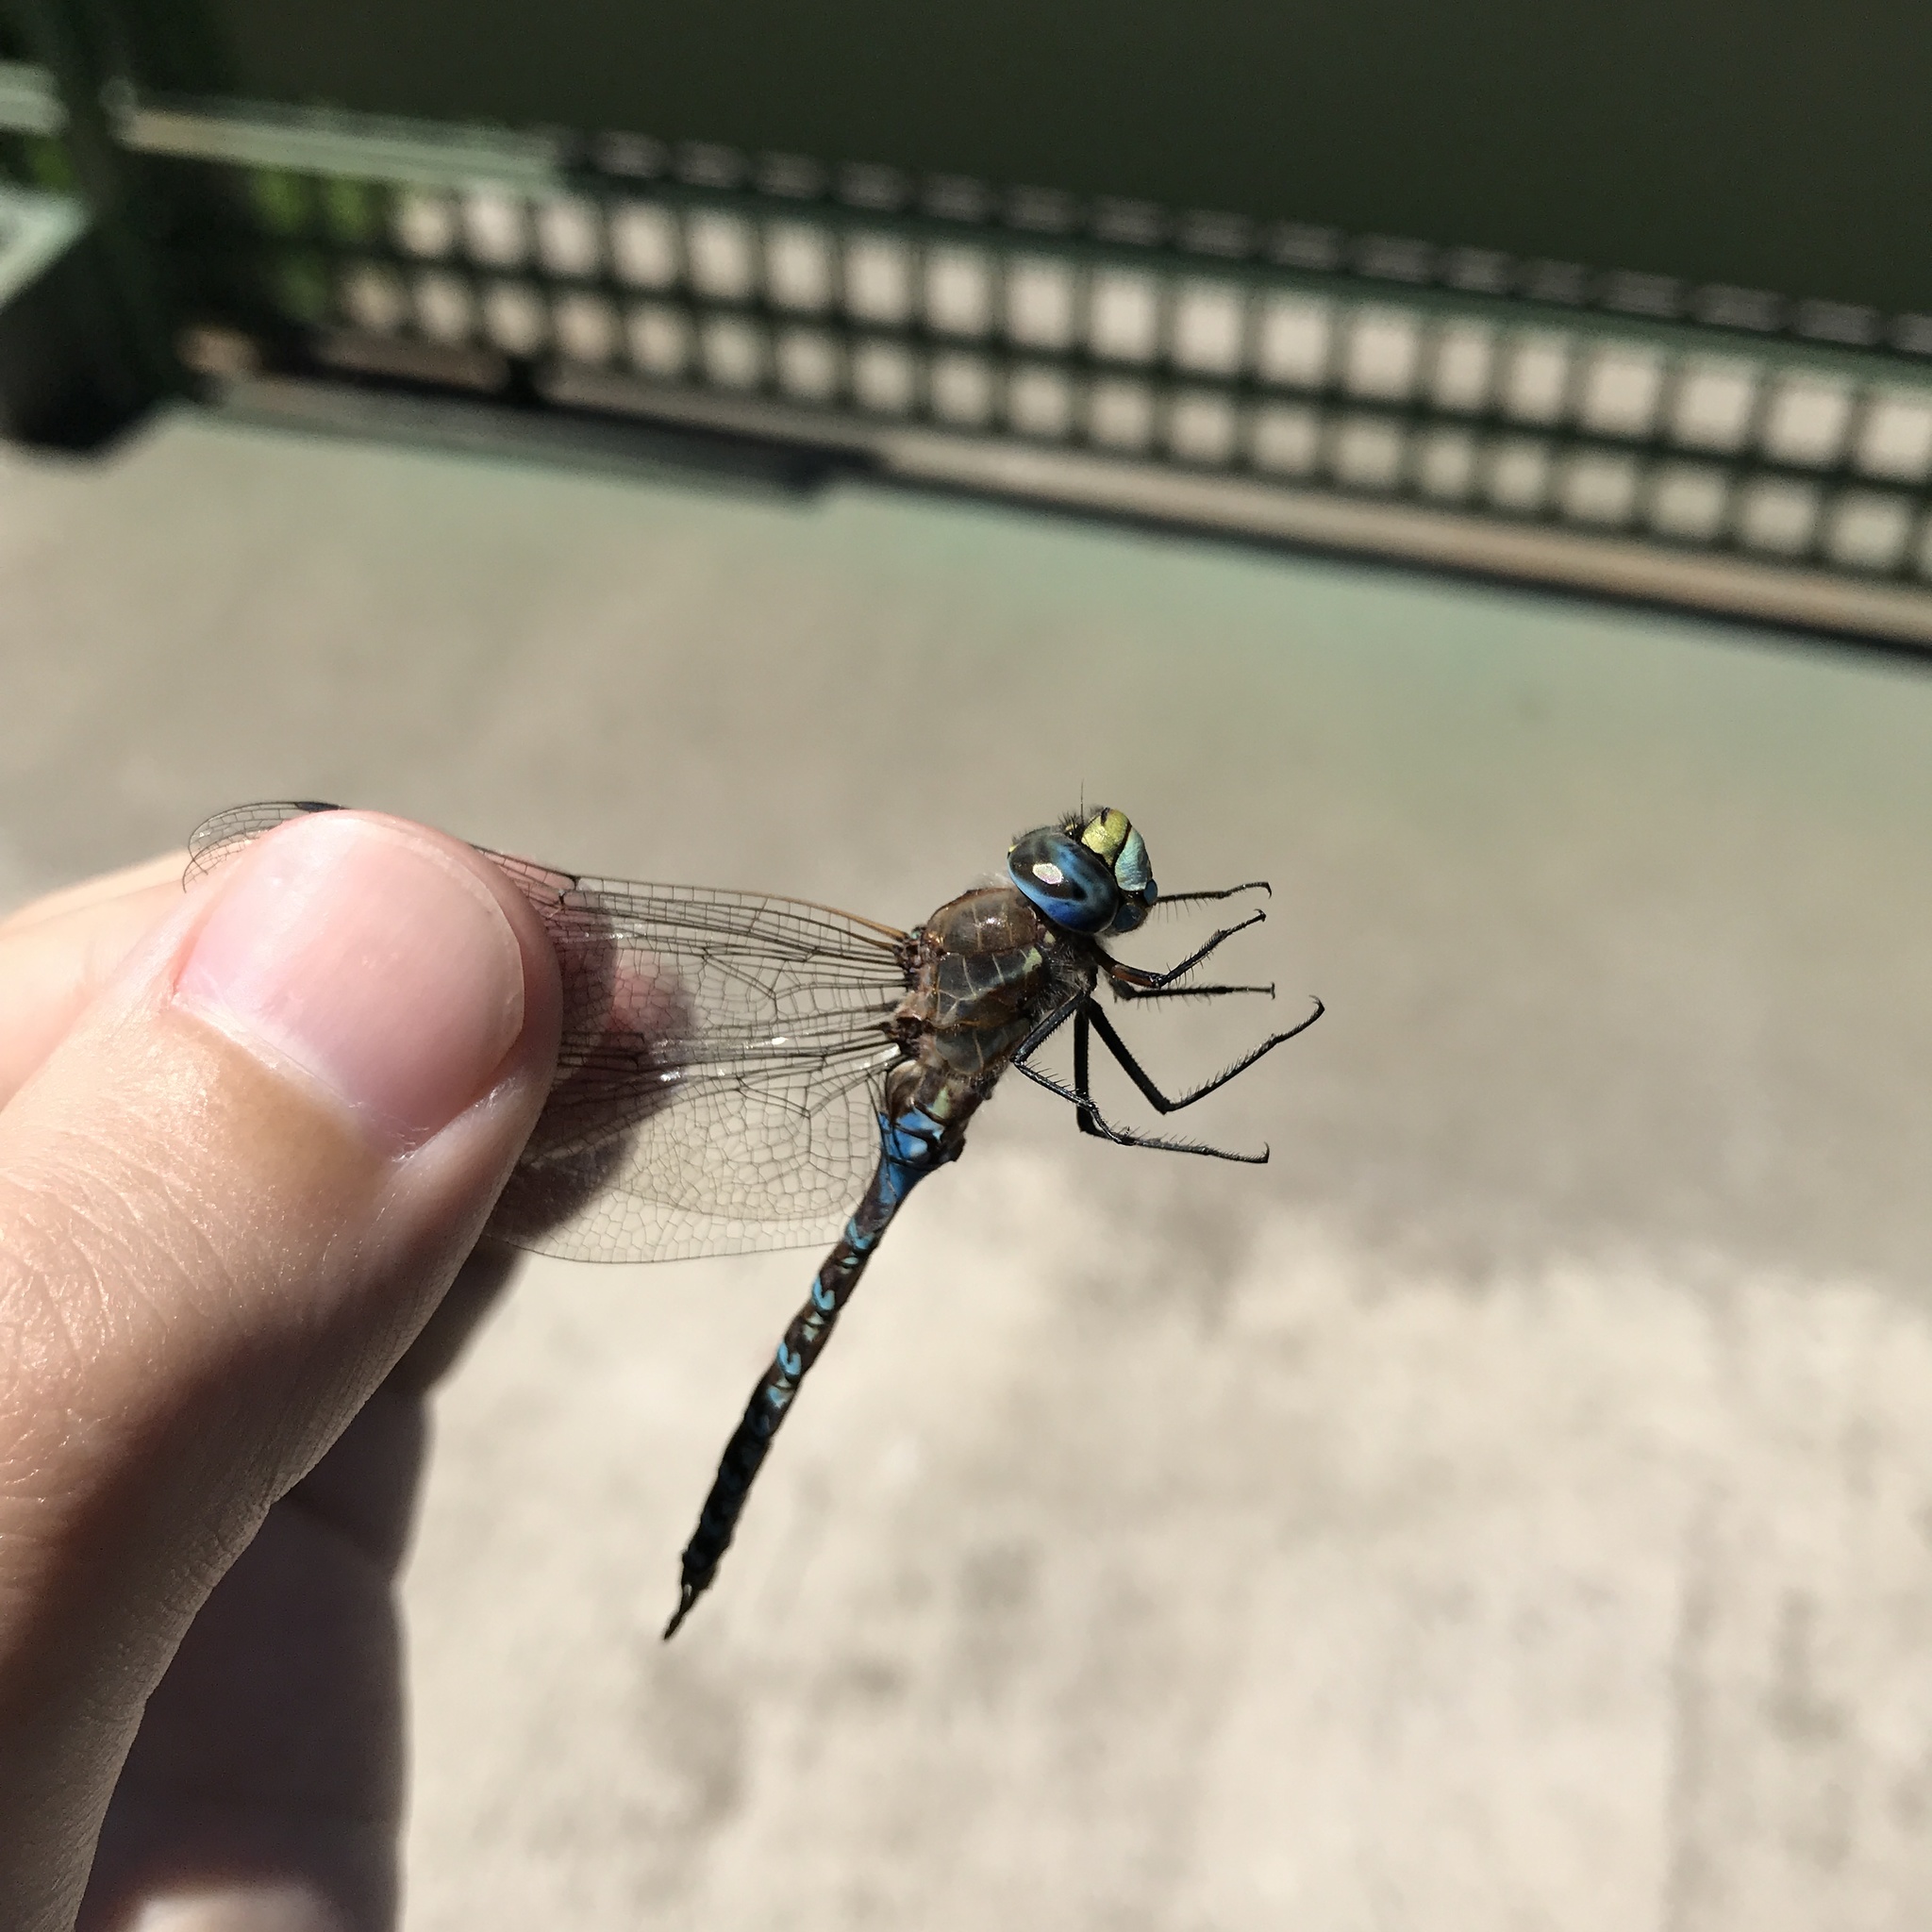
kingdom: Animalia
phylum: Arthropoda
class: Insecta
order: Odonata
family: Aeshnidae
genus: Rhionaeschna
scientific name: Rhionaeschna diffinis
